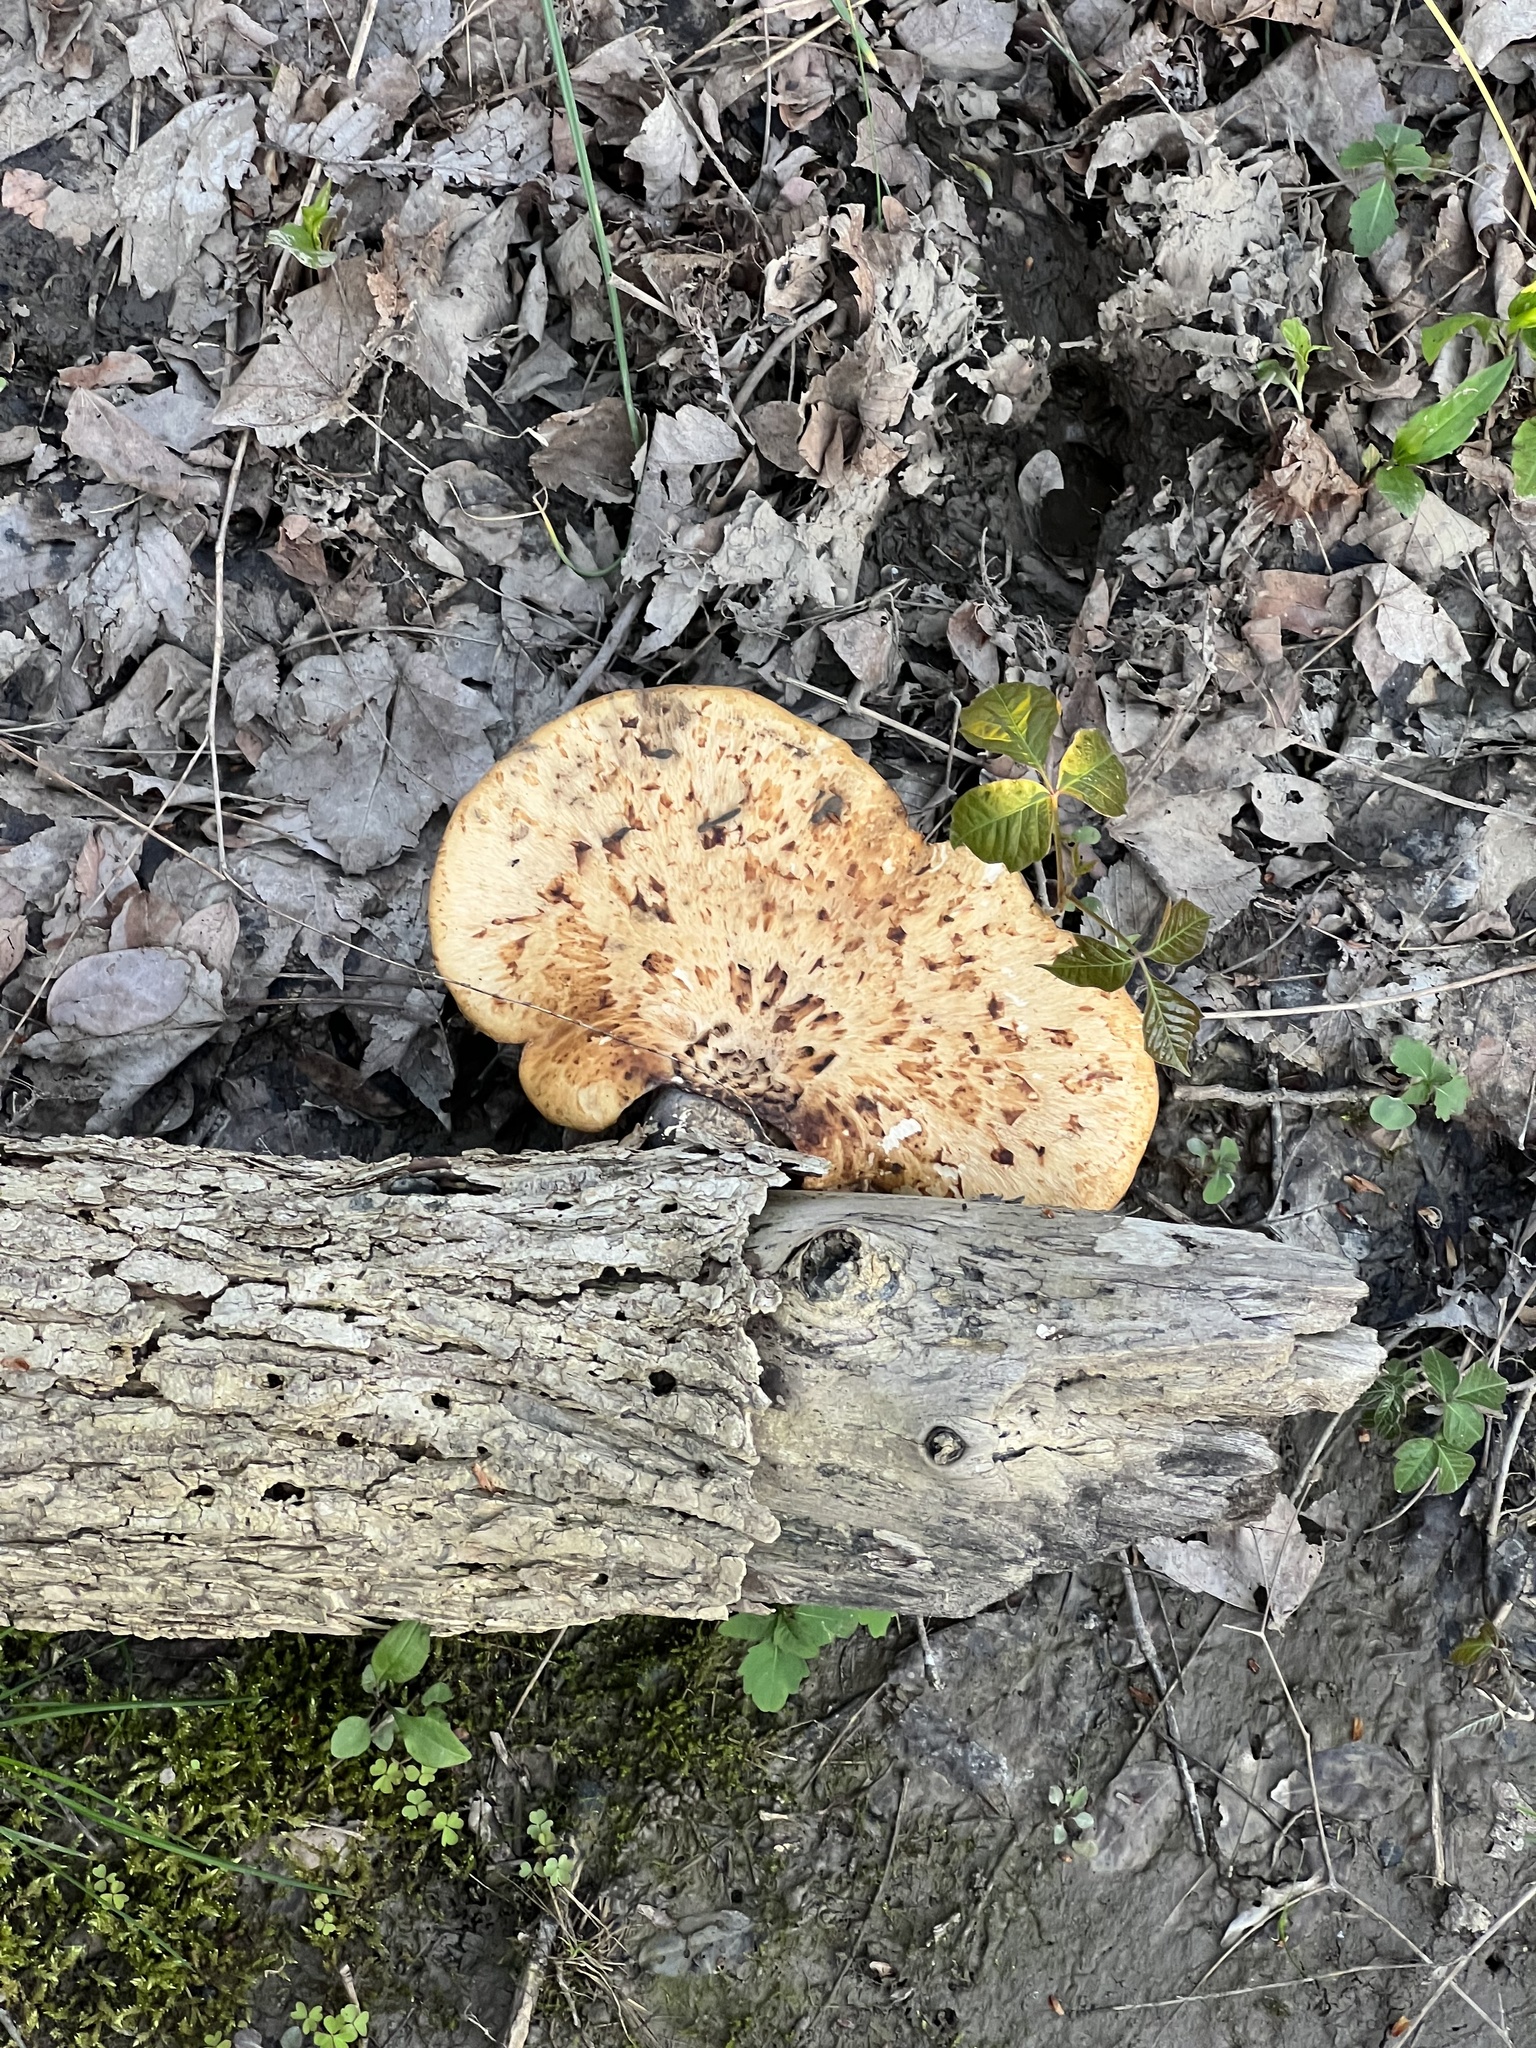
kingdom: Fungi
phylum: Basidiomycota
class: Agaricomycetes
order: Polyporales
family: Polyporaceae
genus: Cerioporus
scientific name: Cerioporus squamosus
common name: Dryad's saddle
